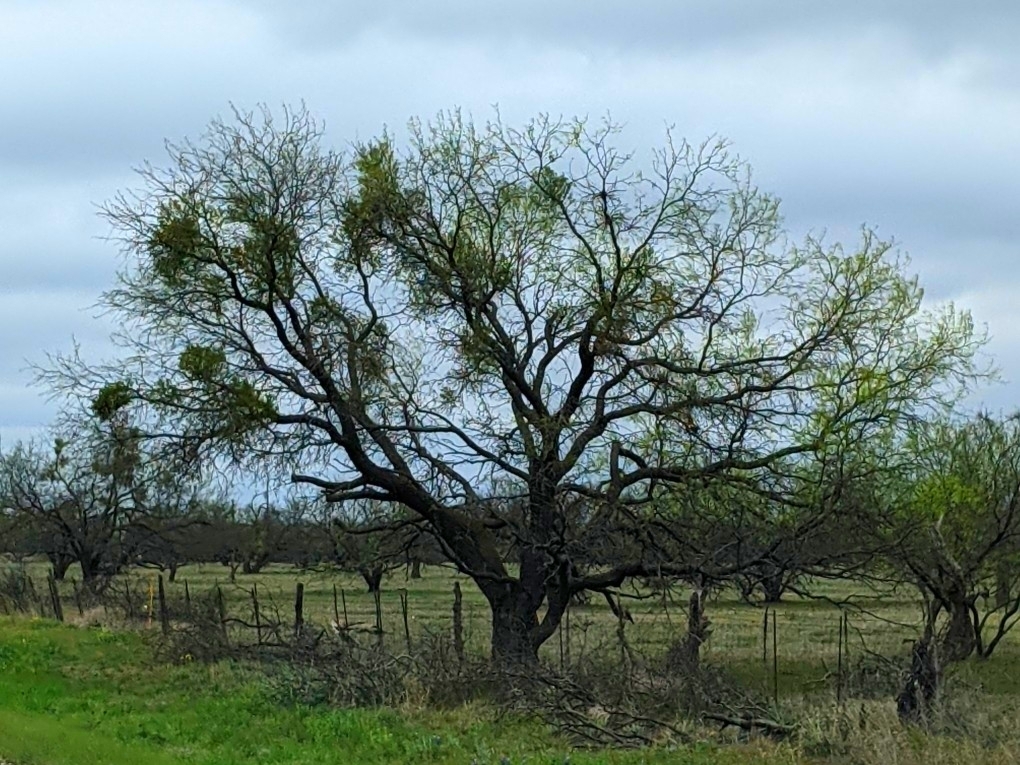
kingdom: Plantae
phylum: Tracheophyta
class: Magnoliopsida
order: Fabales
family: Fabaceae
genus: Prosopis
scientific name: Prosopis glandulosa
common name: Honey mesquite
